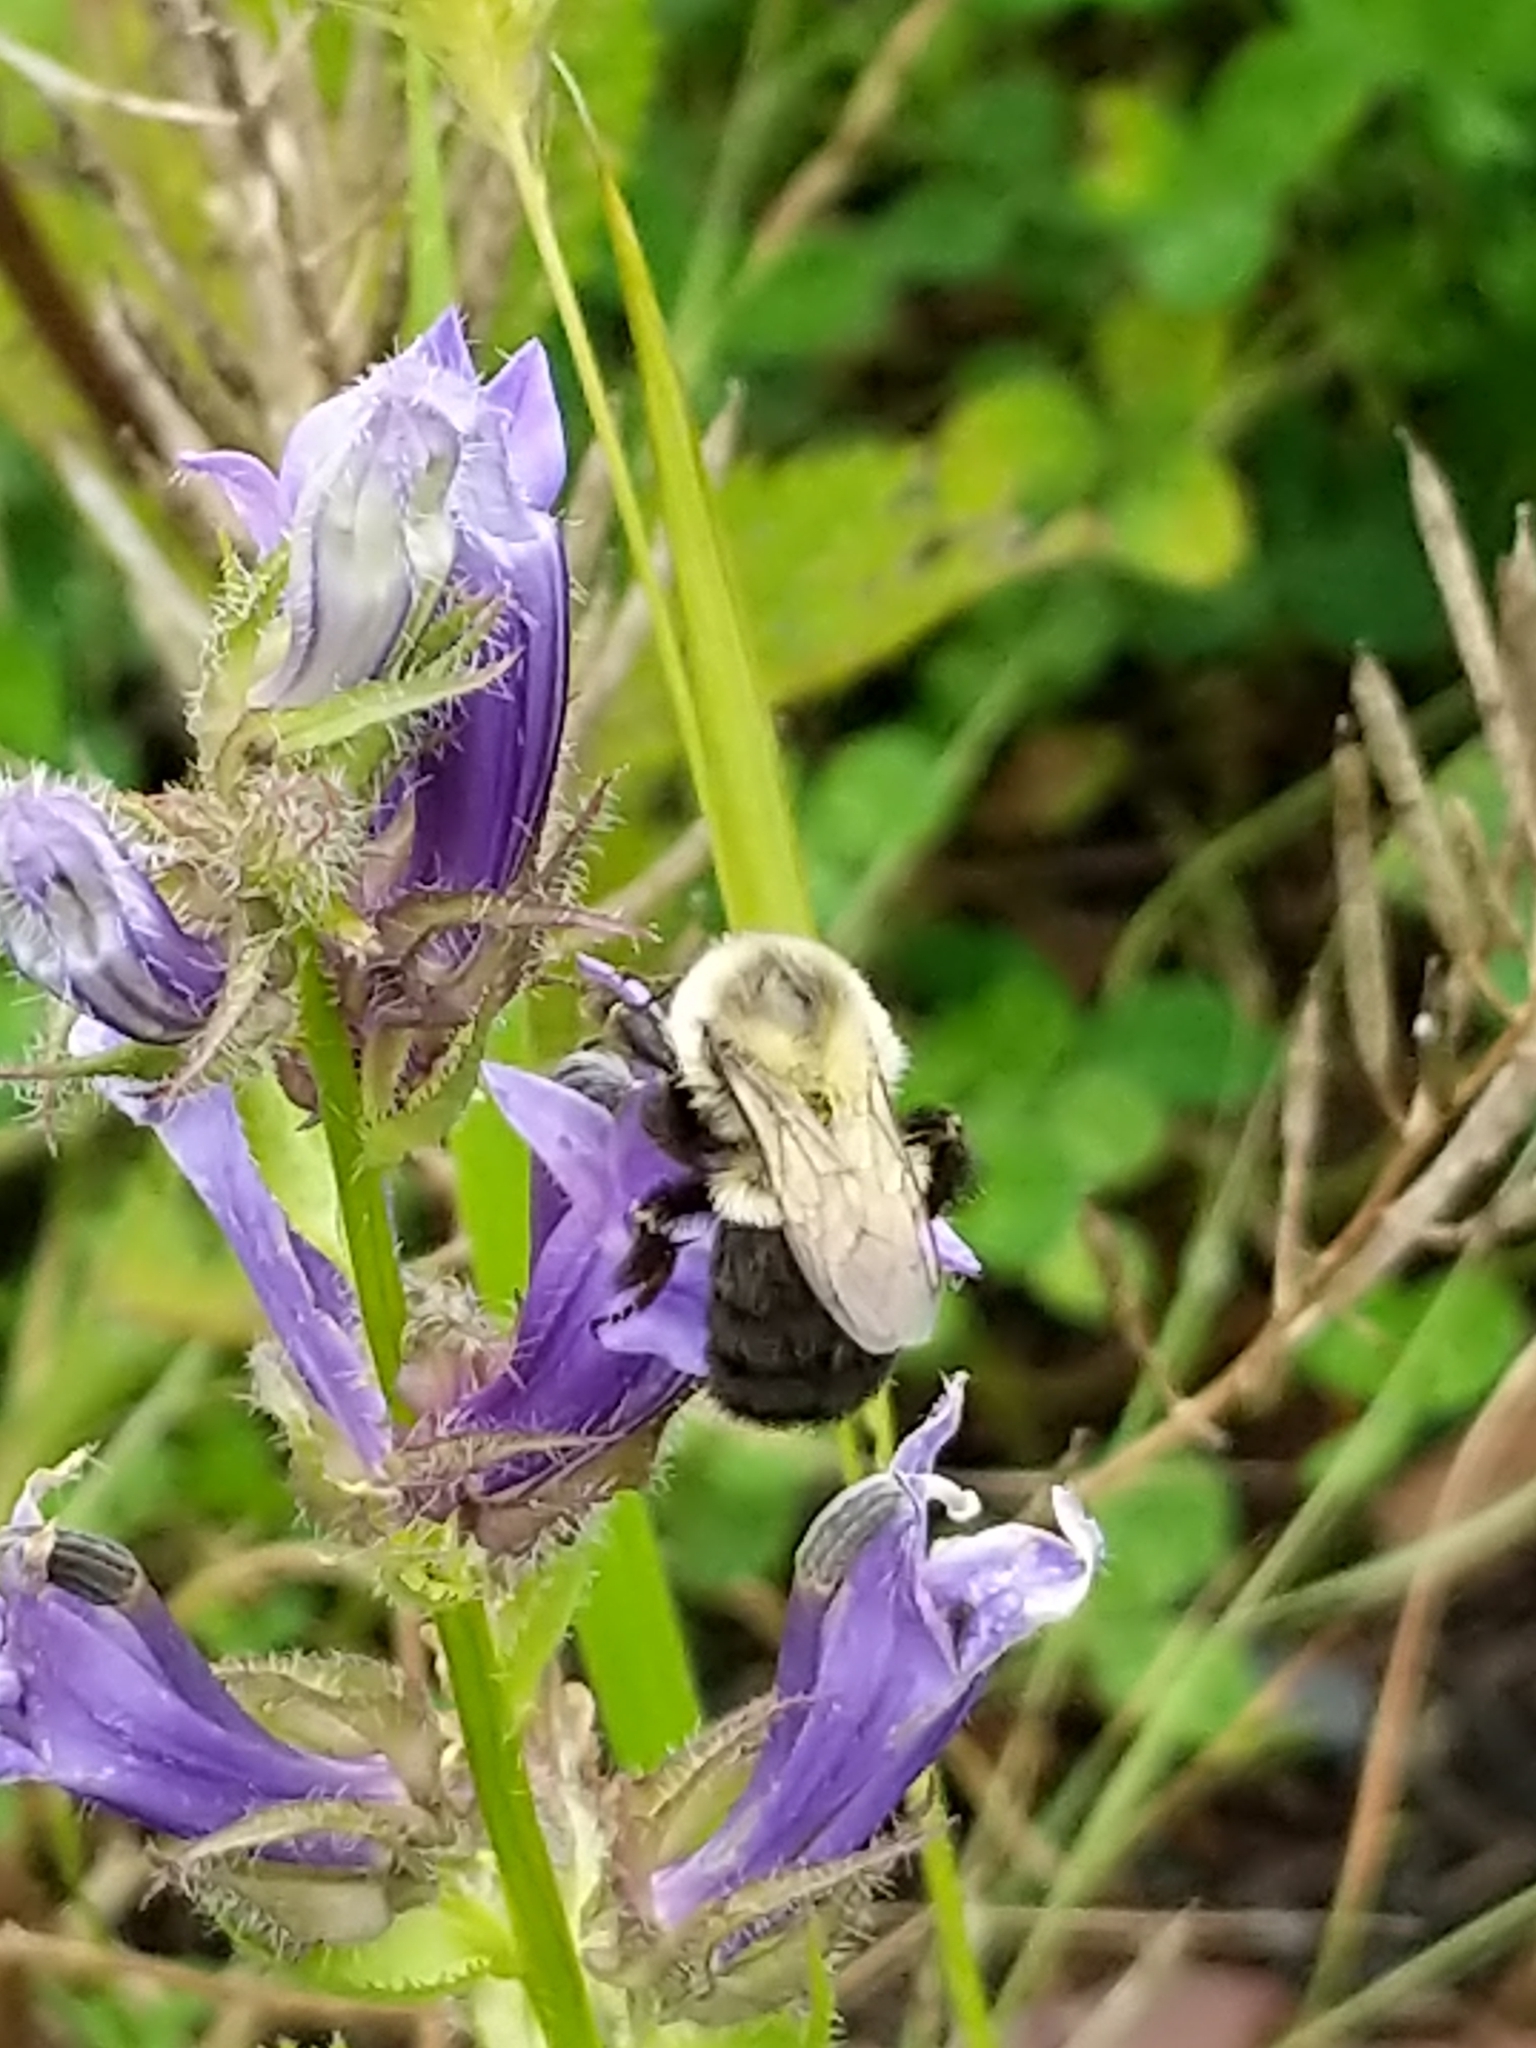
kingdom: Animalia
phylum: Arthropoda
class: Insecta
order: Hymenoptera
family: Apidae
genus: Bombus
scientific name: Bombus impatiens
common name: Common eastern bumble bee
